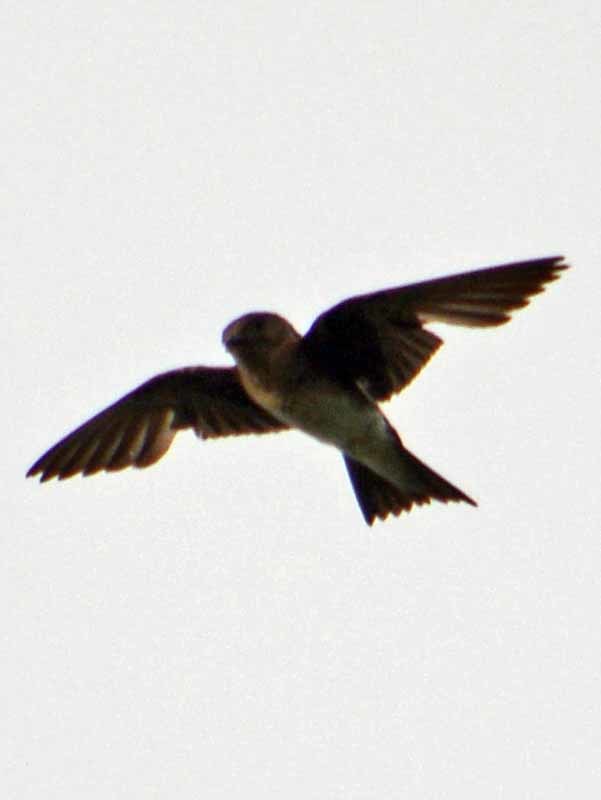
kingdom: Animalia
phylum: Chordata
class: Aves
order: Passeriformes
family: Hirundinidae
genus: Stelgidopteryx
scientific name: Stelgidopteryx serripennis
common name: Northern rough-winged swallow
